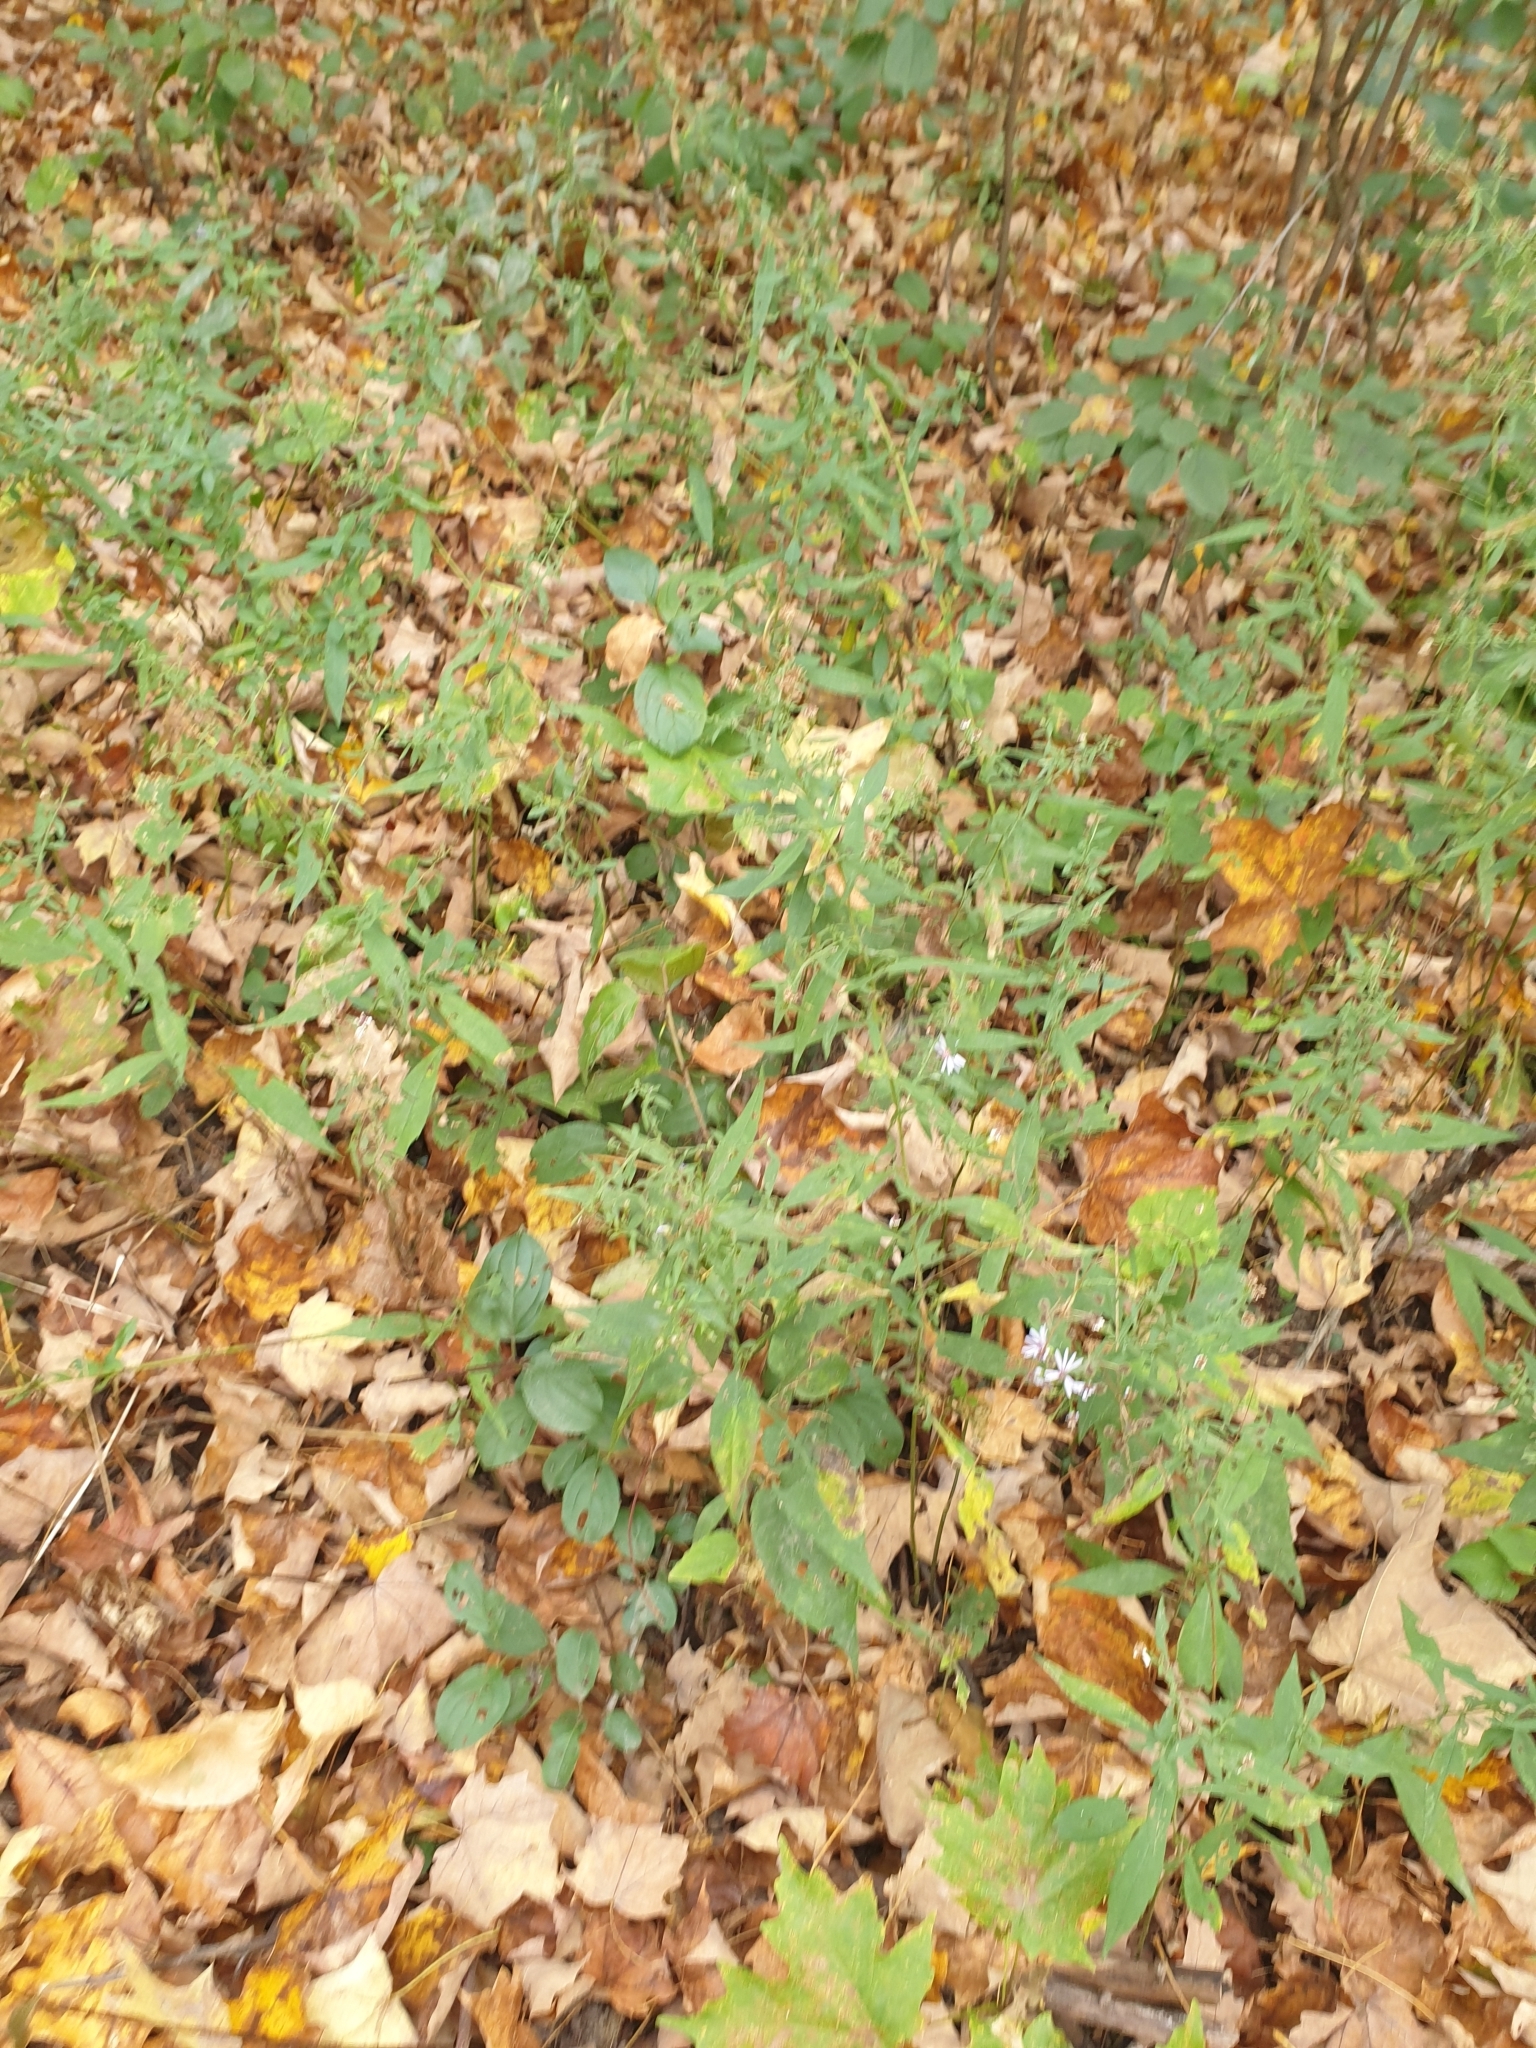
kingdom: Plantae
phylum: Tracheophyta
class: Magnoliopsida
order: Asterales
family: Asteraceae
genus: Symphyotrichum
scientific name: Symphyotrichum ontarionis
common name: Bottomland aster
